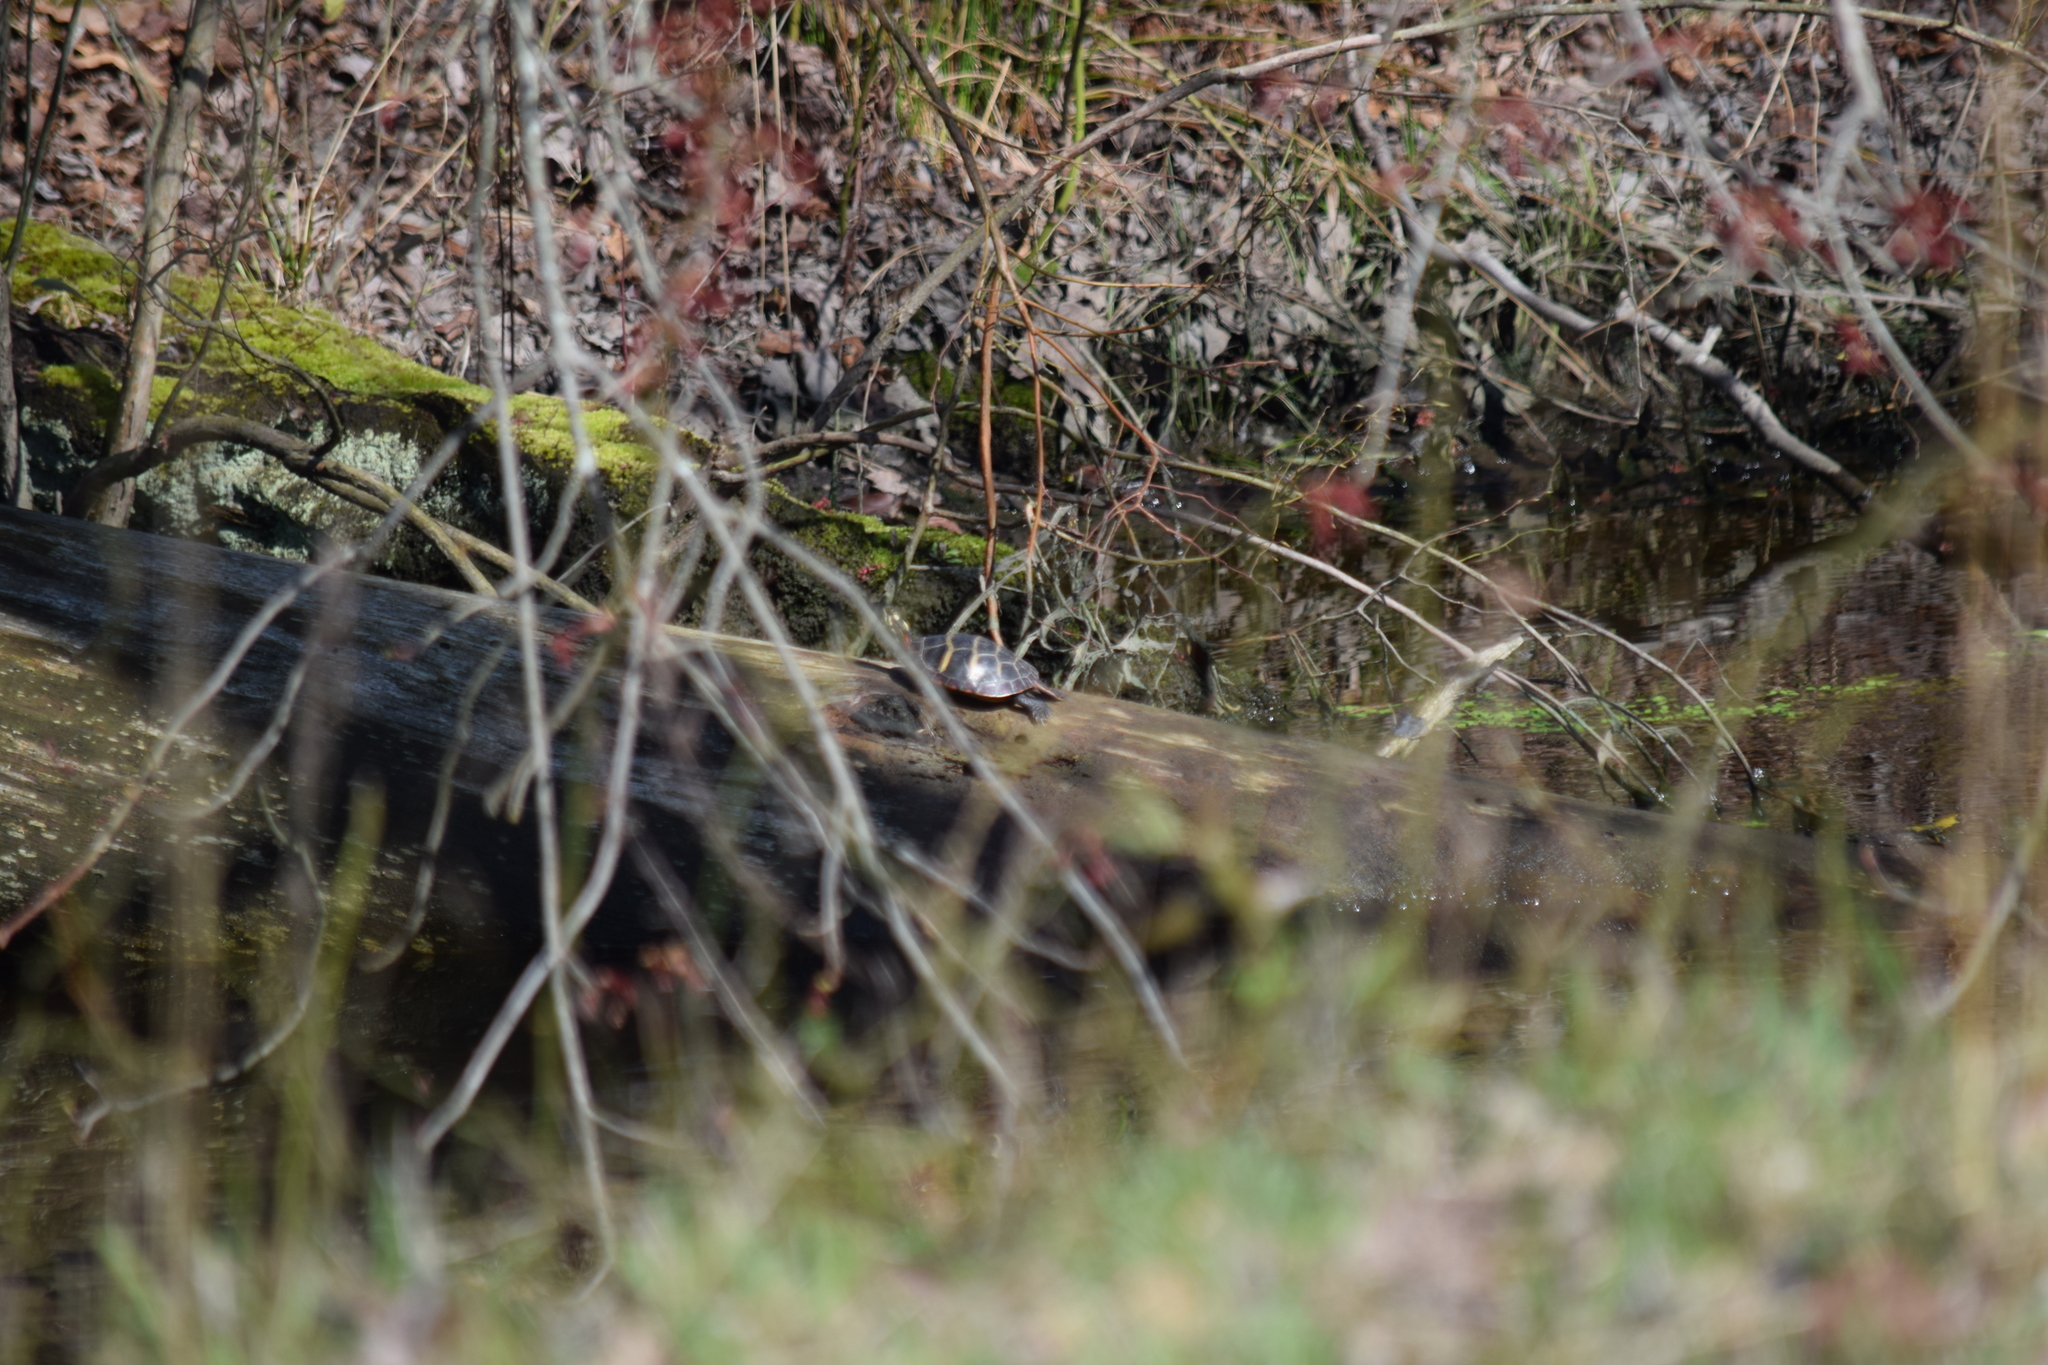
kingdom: Animalia
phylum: Chordata
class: Testudines
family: Emydidae
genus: Chrysemys
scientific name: Chrysemys picta
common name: Painted turtle
